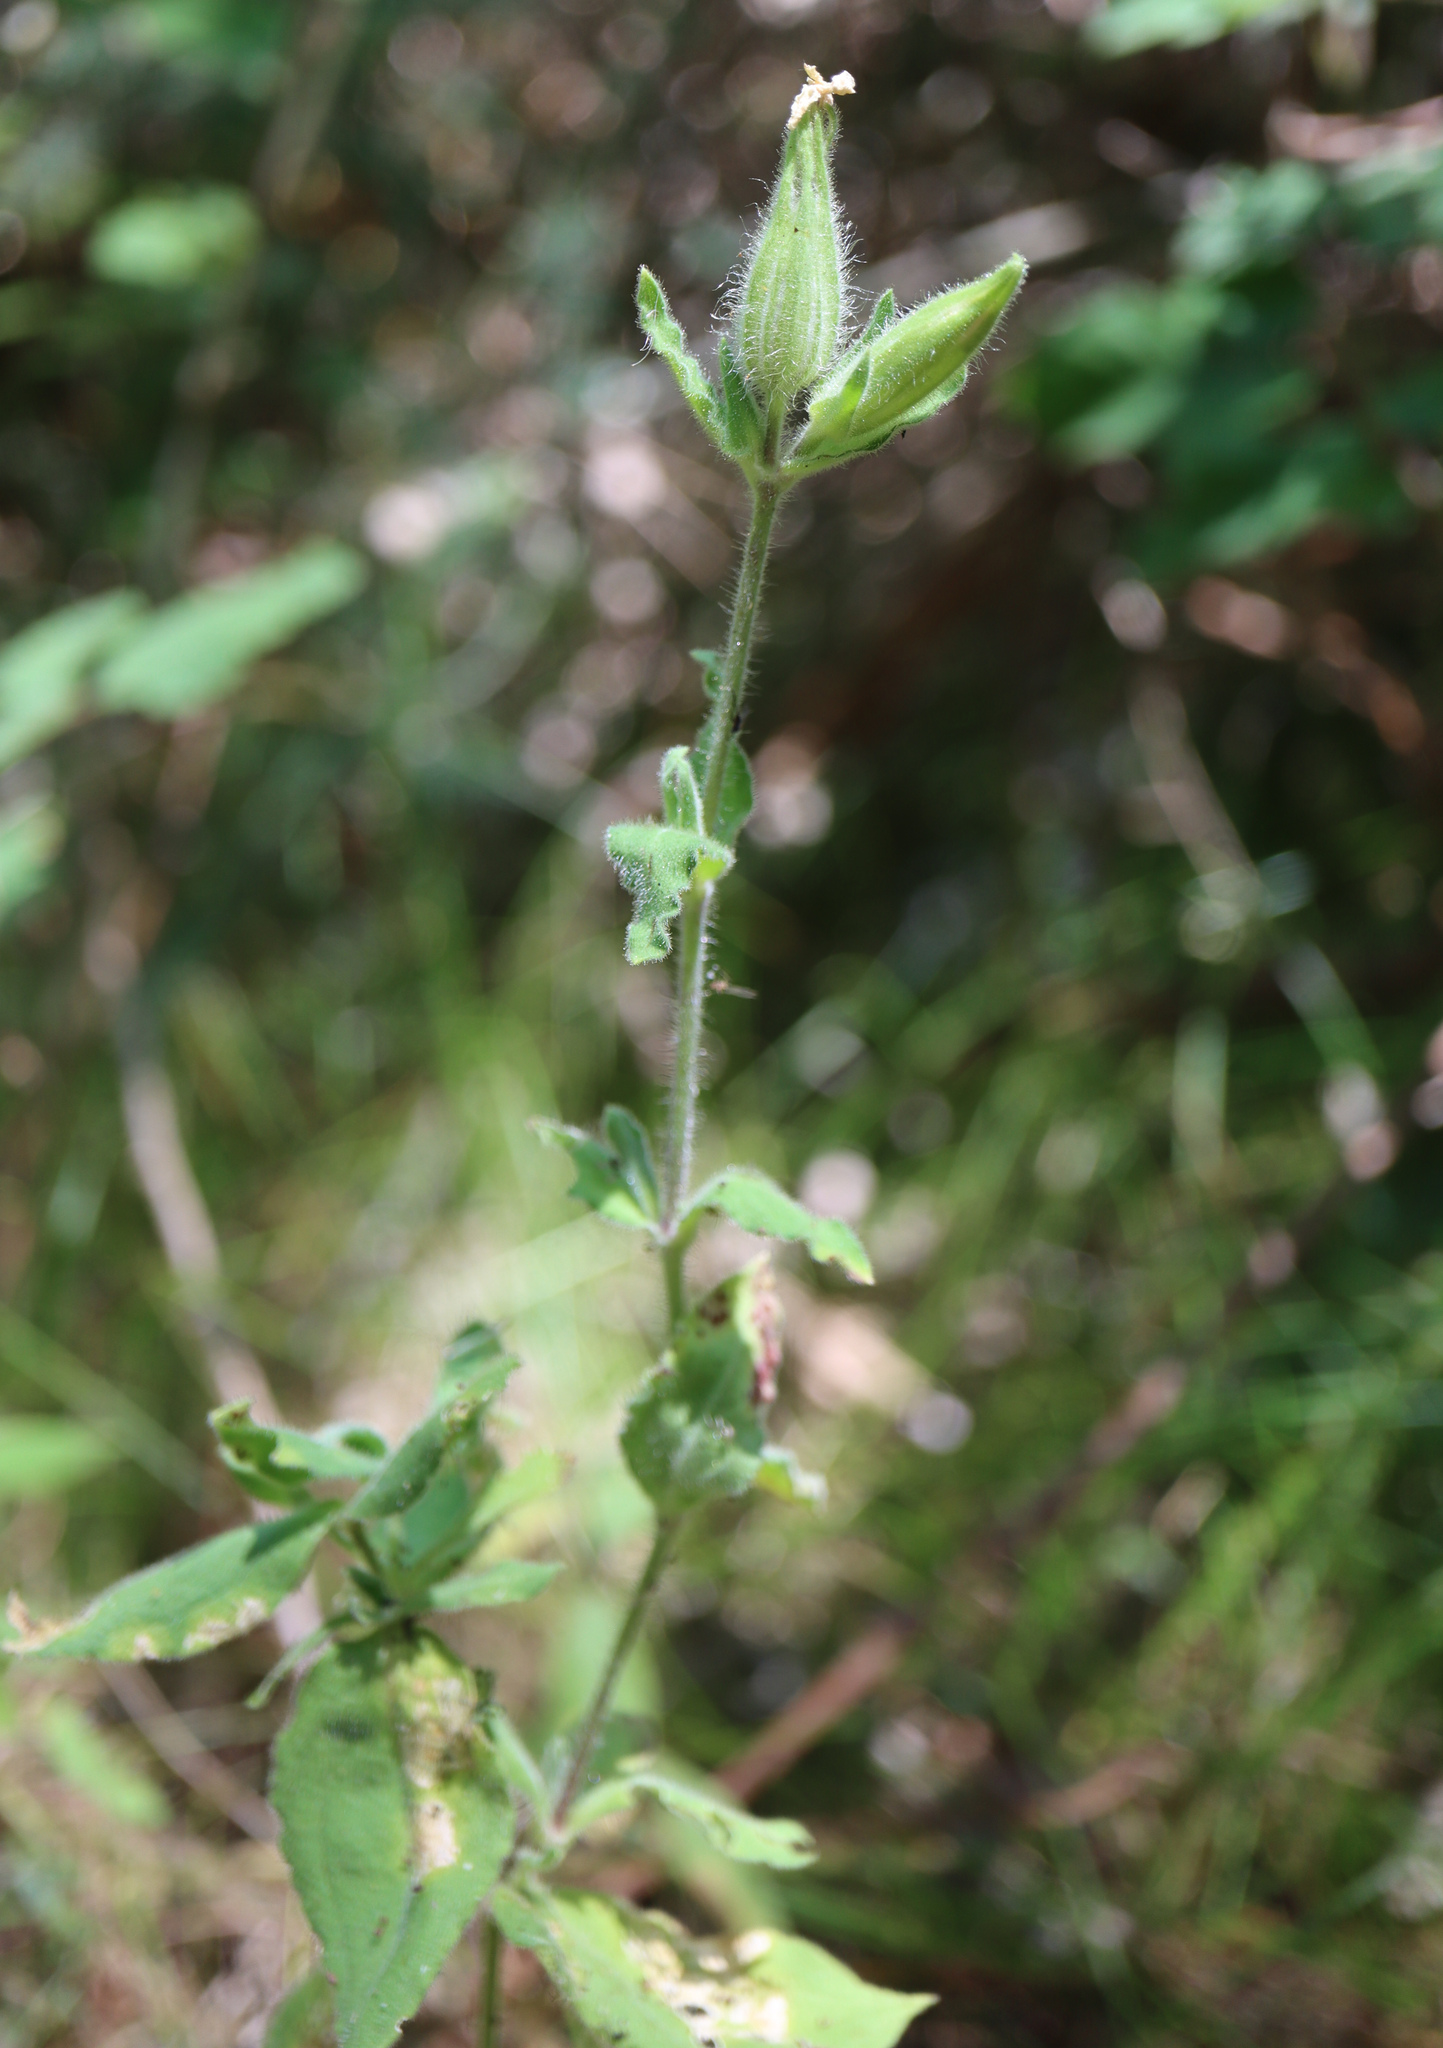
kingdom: Plantae
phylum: Tracheophyta
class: Magnoliopsida
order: Caryophyllales
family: Caryophyllaceae
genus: Silene
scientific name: Silene latifolia
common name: White campion
